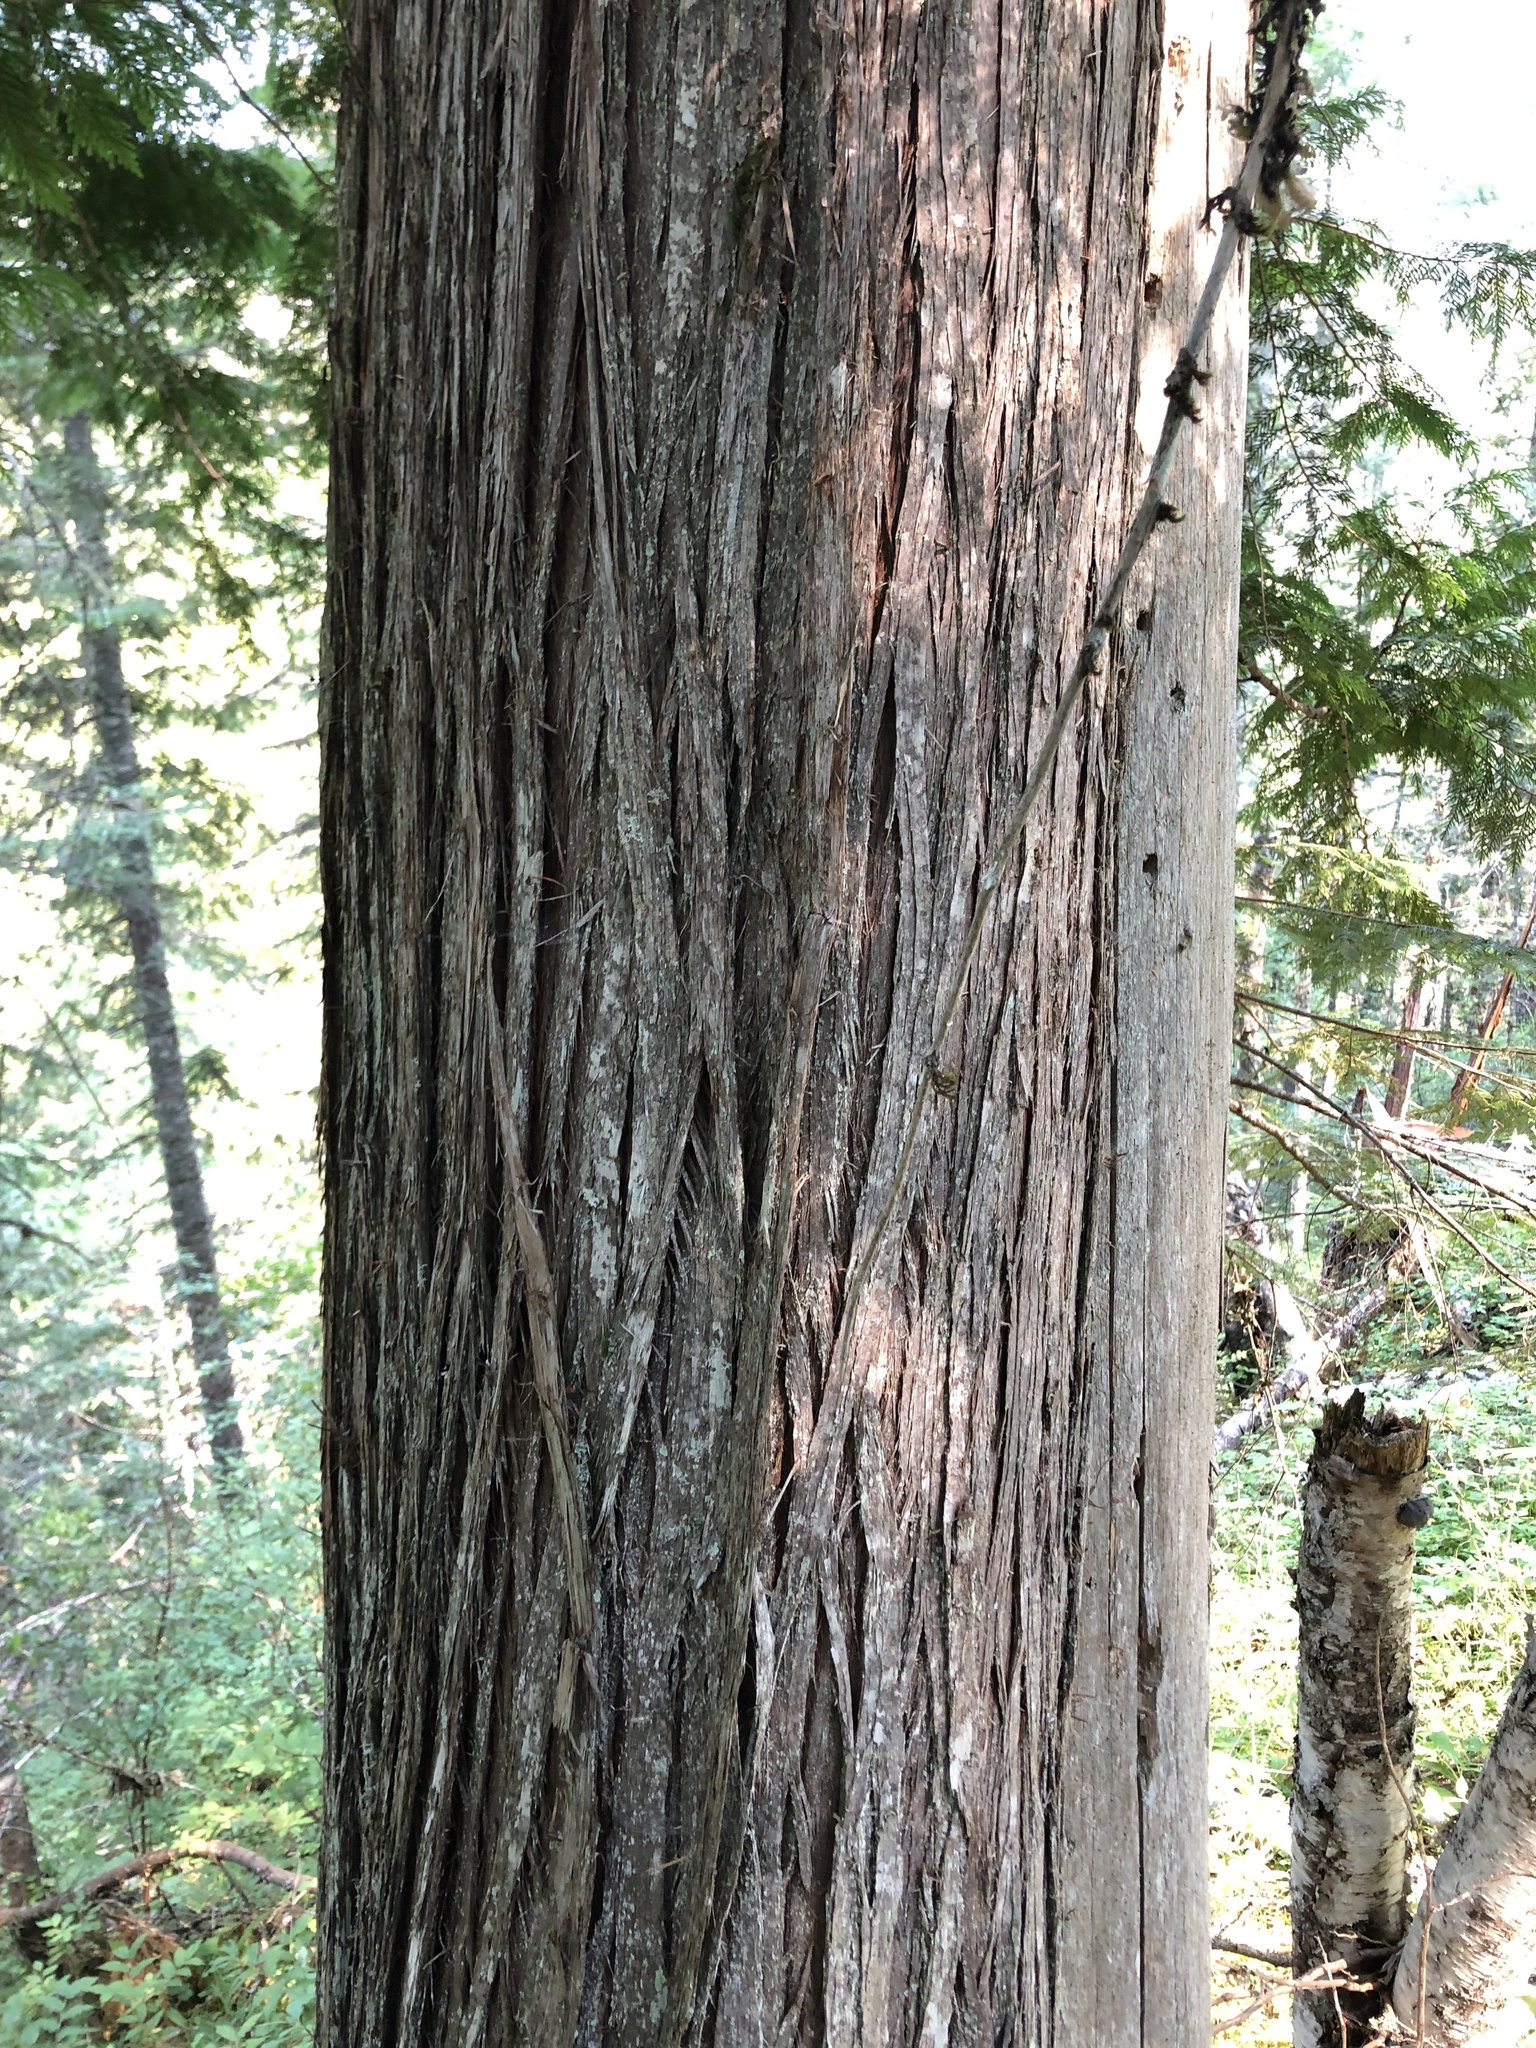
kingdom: Plantae
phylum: Tracheophyta
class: Pinopsida
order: Pinales
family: Cupressaceae
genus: Thuja
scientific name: Thuja plicata
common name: Western red-cedar
